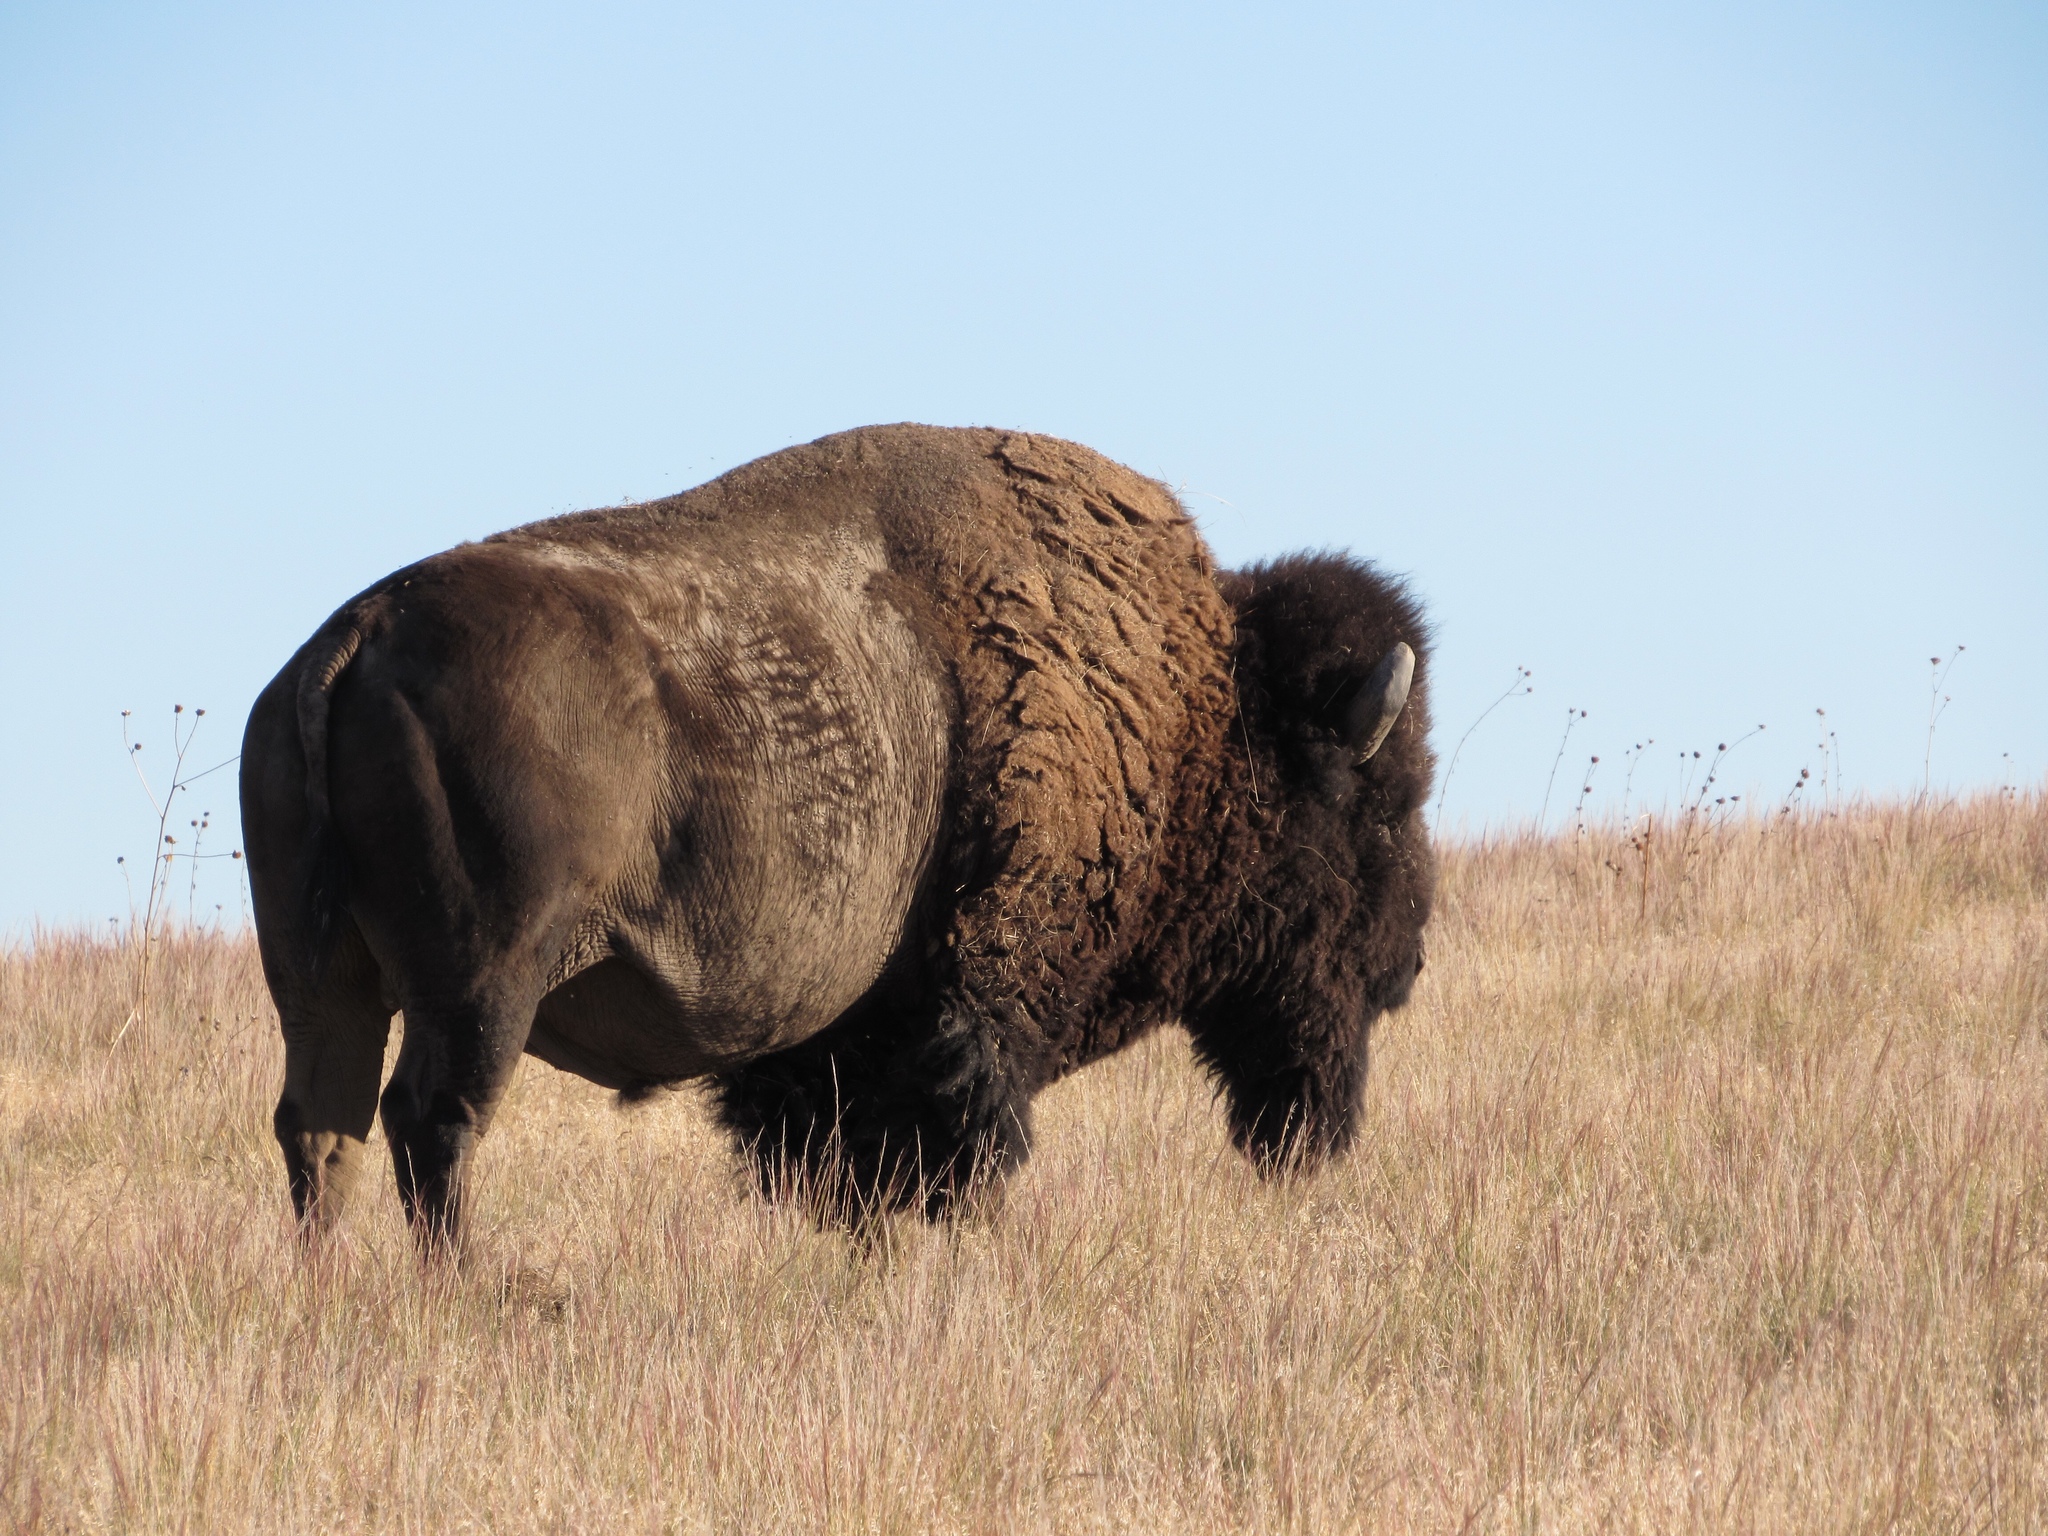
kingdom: Animalia
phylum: Chordata
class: Mammalia
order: Artiodactyla
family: Bovidae
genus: Bison
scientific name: Bison bison
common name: American bison
